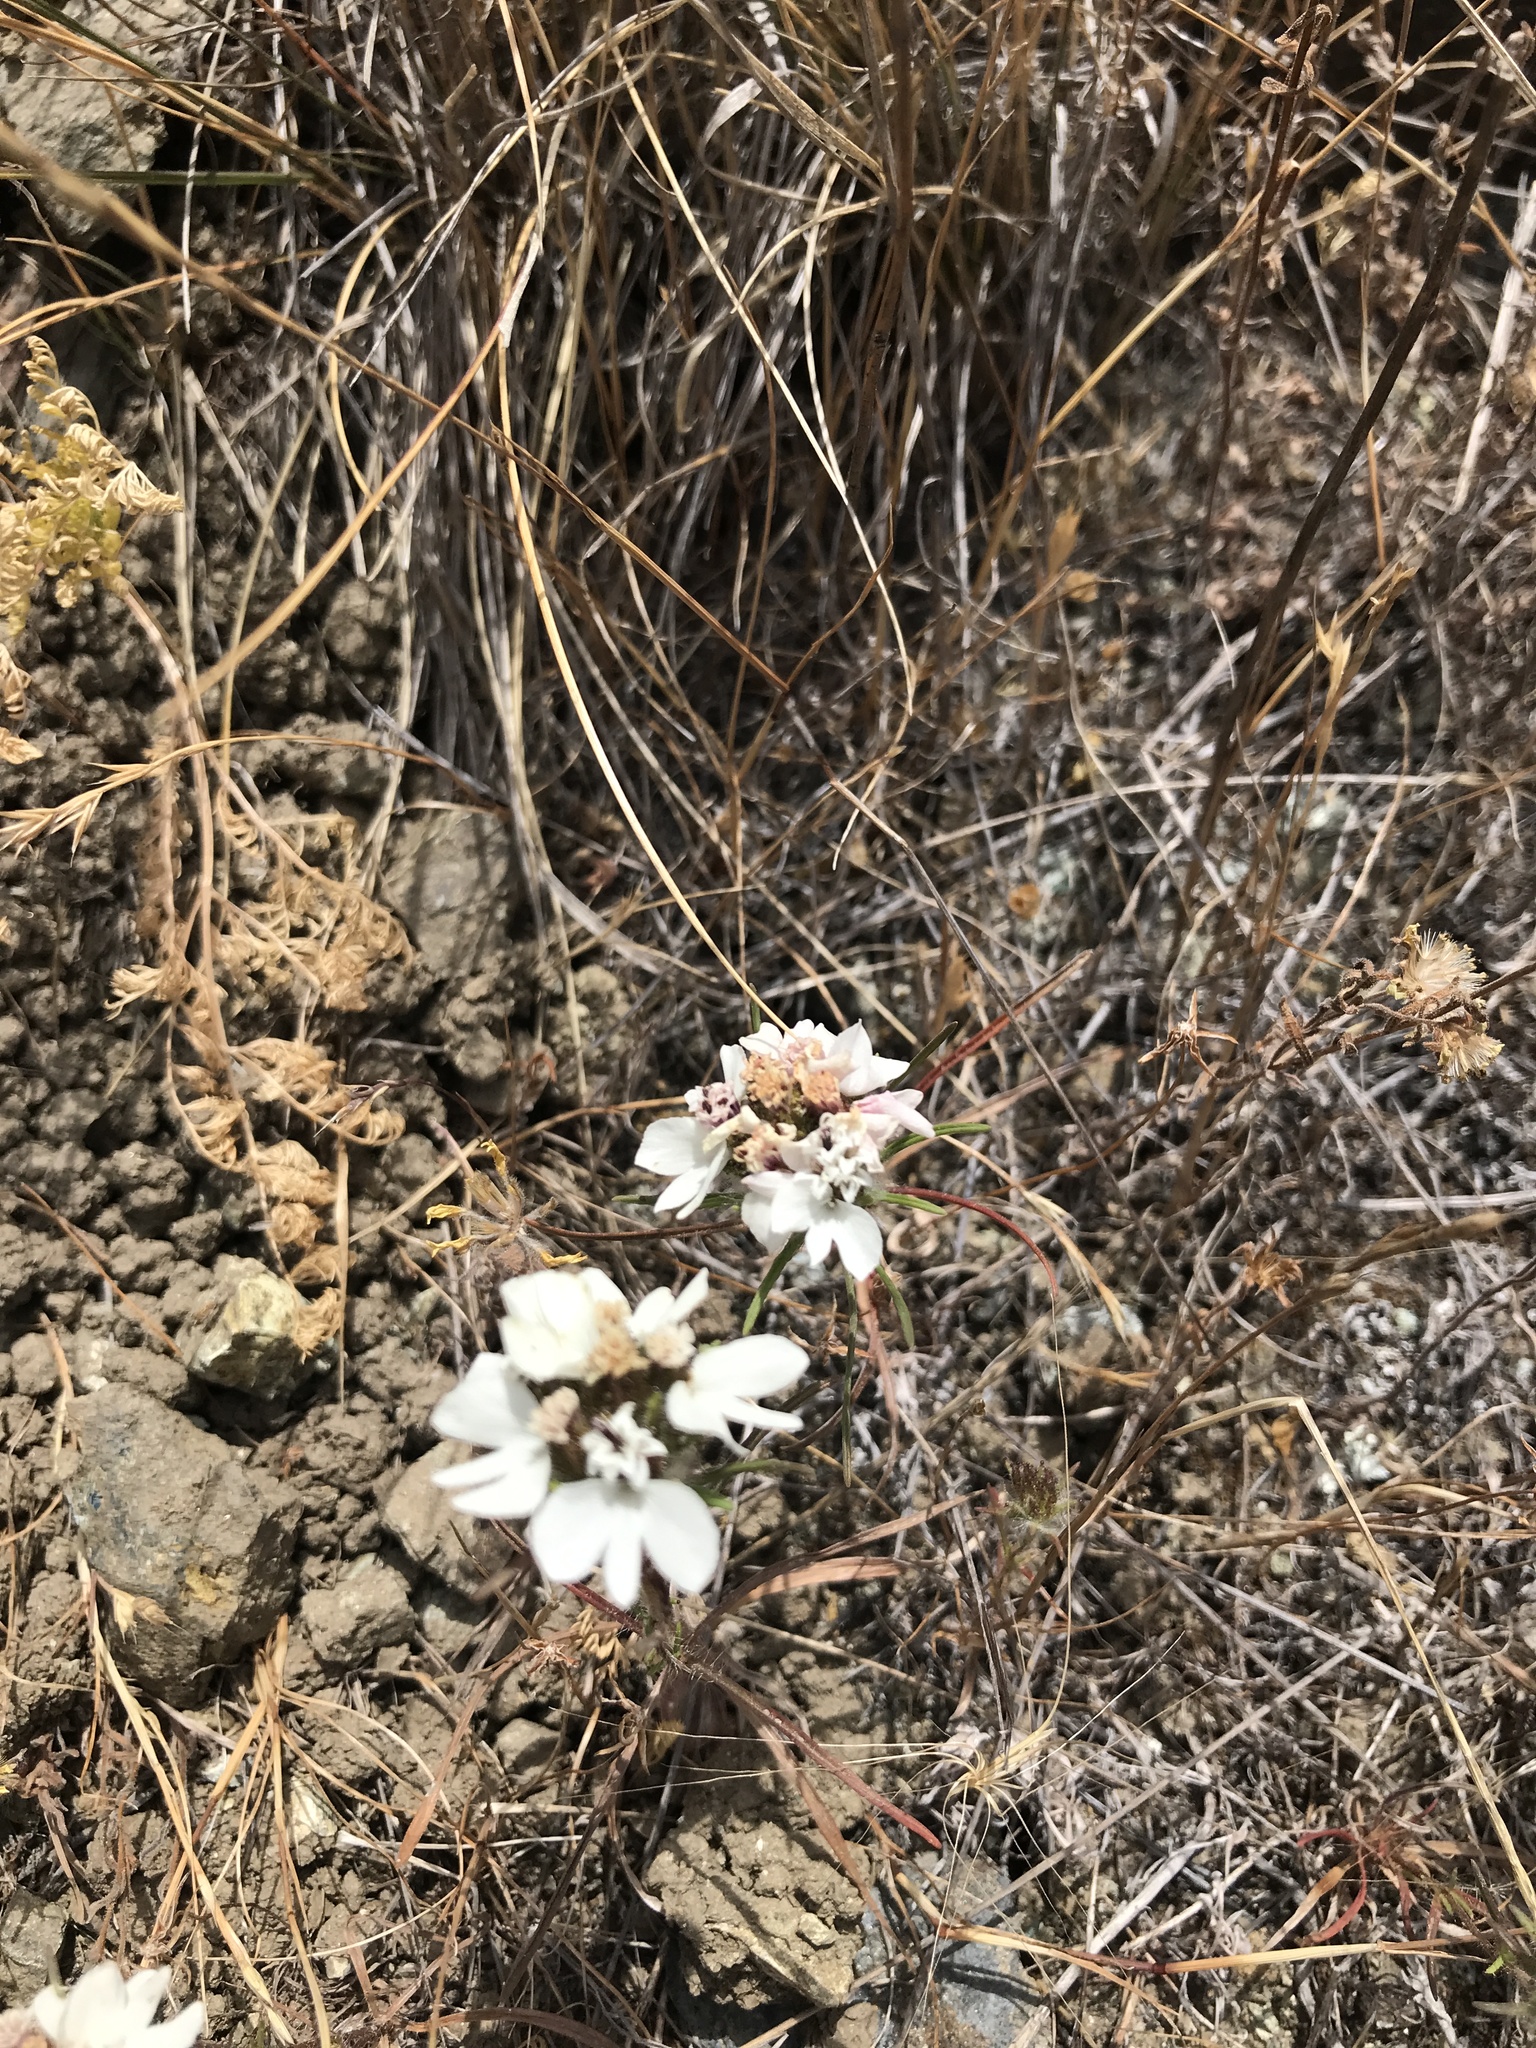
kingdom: Plantae
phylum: Tracheophyta
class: Magnoliopsida
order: Asterales
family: Asteraceae
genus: Calycadenia
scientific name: Calycadenia multiglandulosa
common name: Sticky calycadenia
